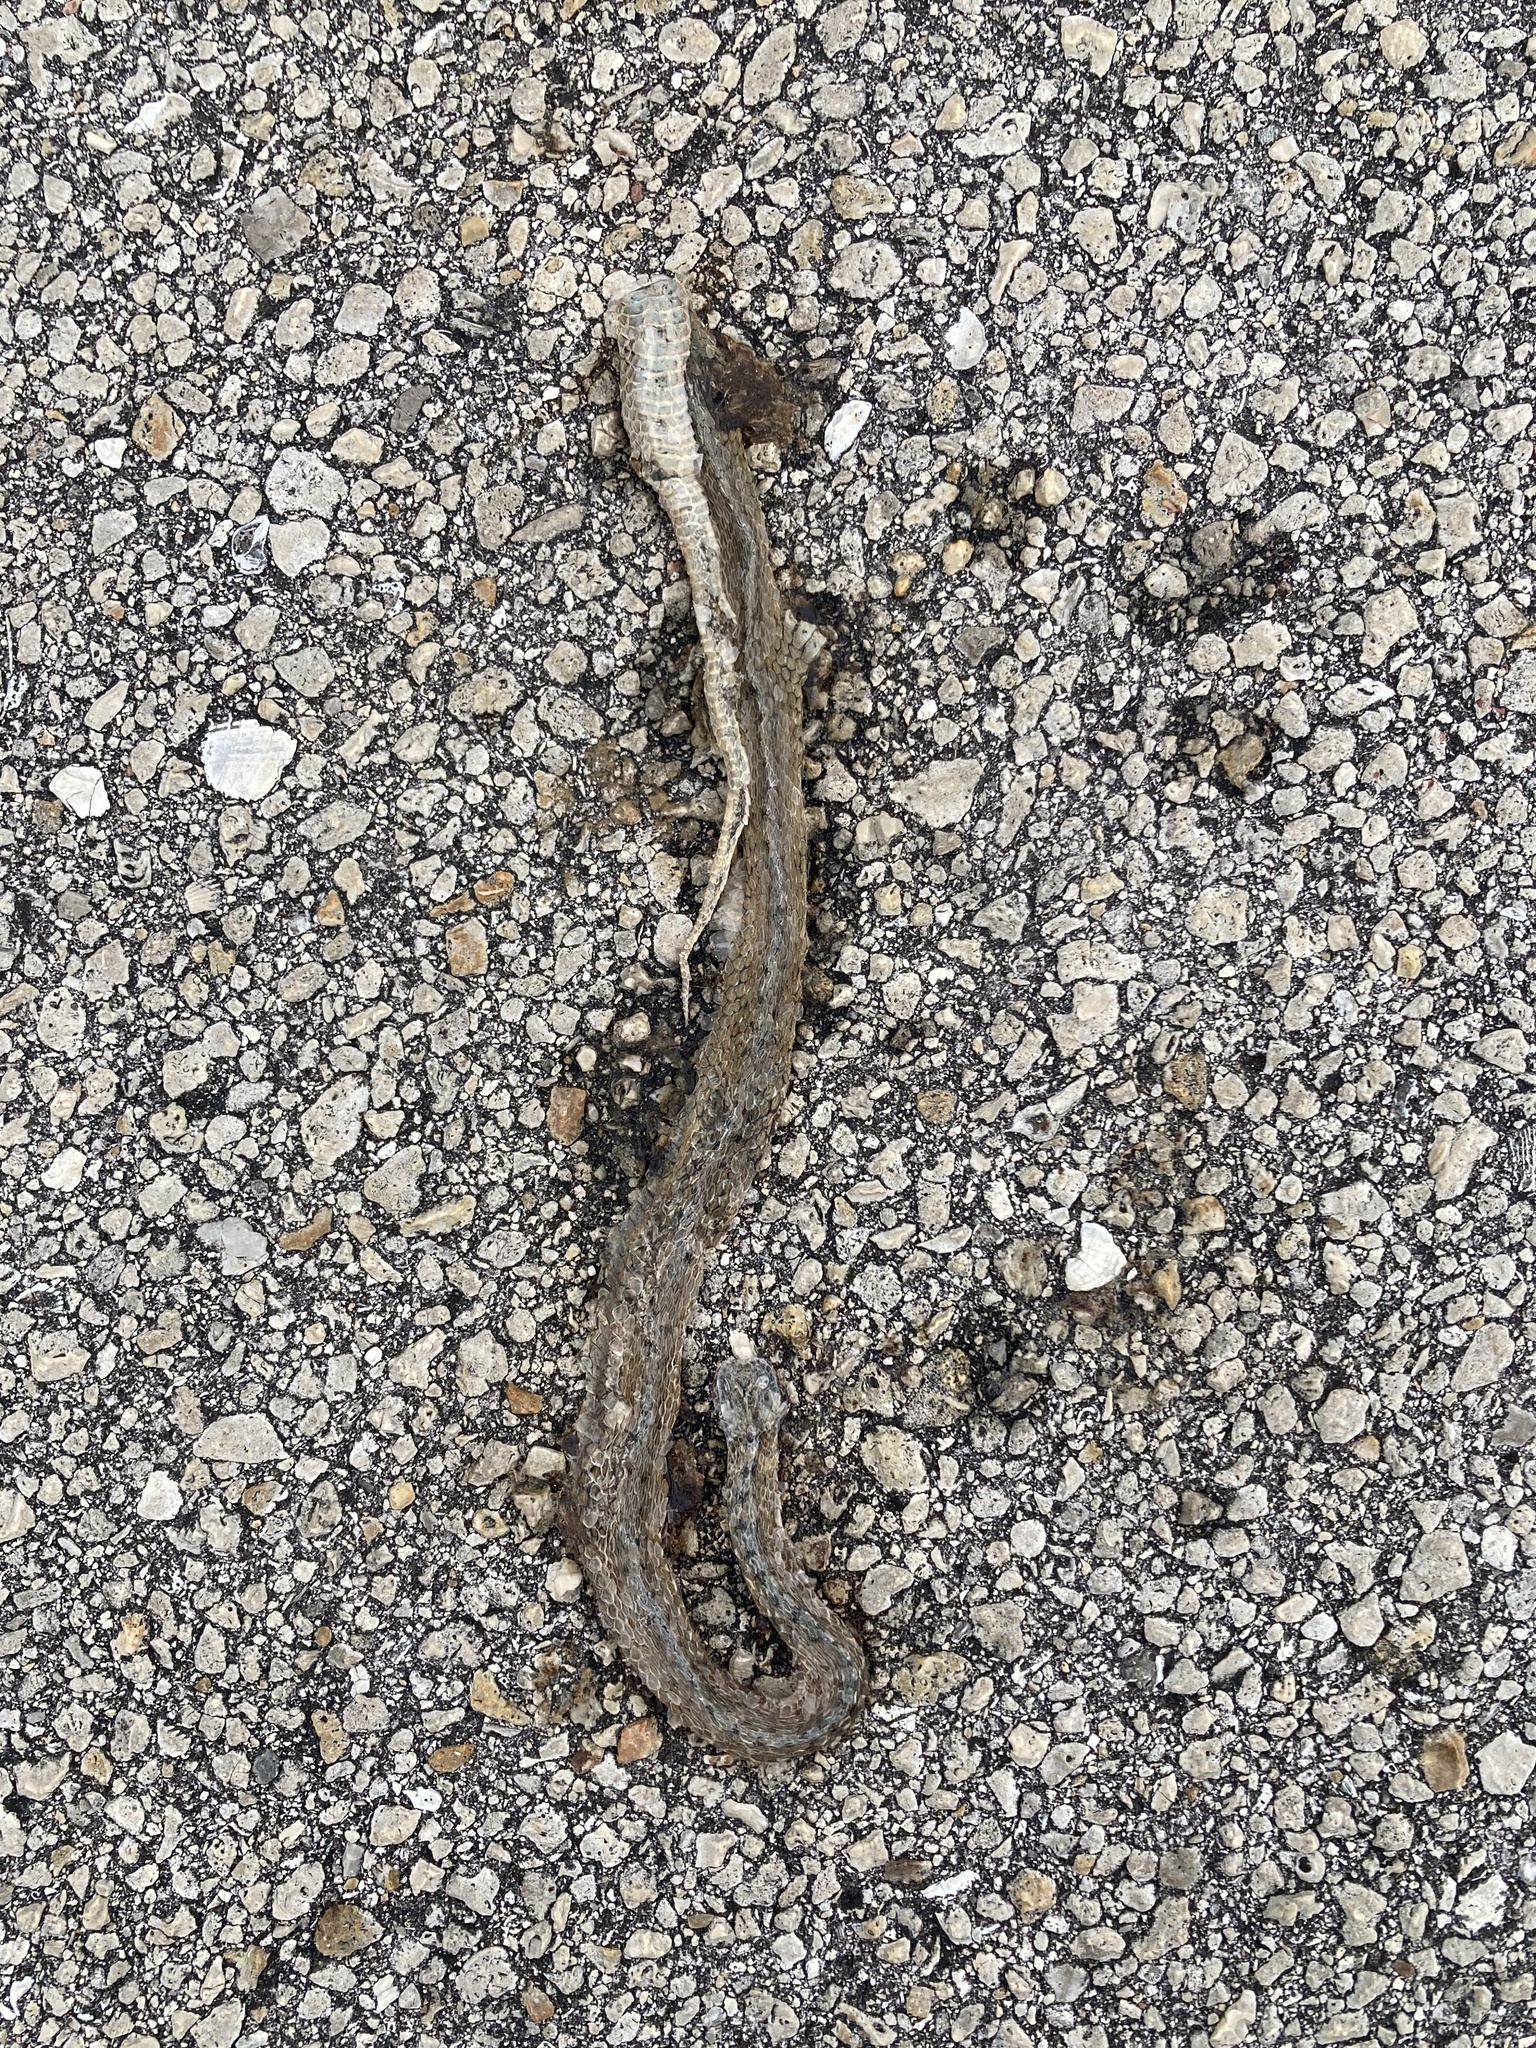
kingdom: Animalia
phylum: Chordata
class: Squamata
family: Colubridae
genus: Storeria
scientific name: Storeria victa
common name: Florida brown snake
